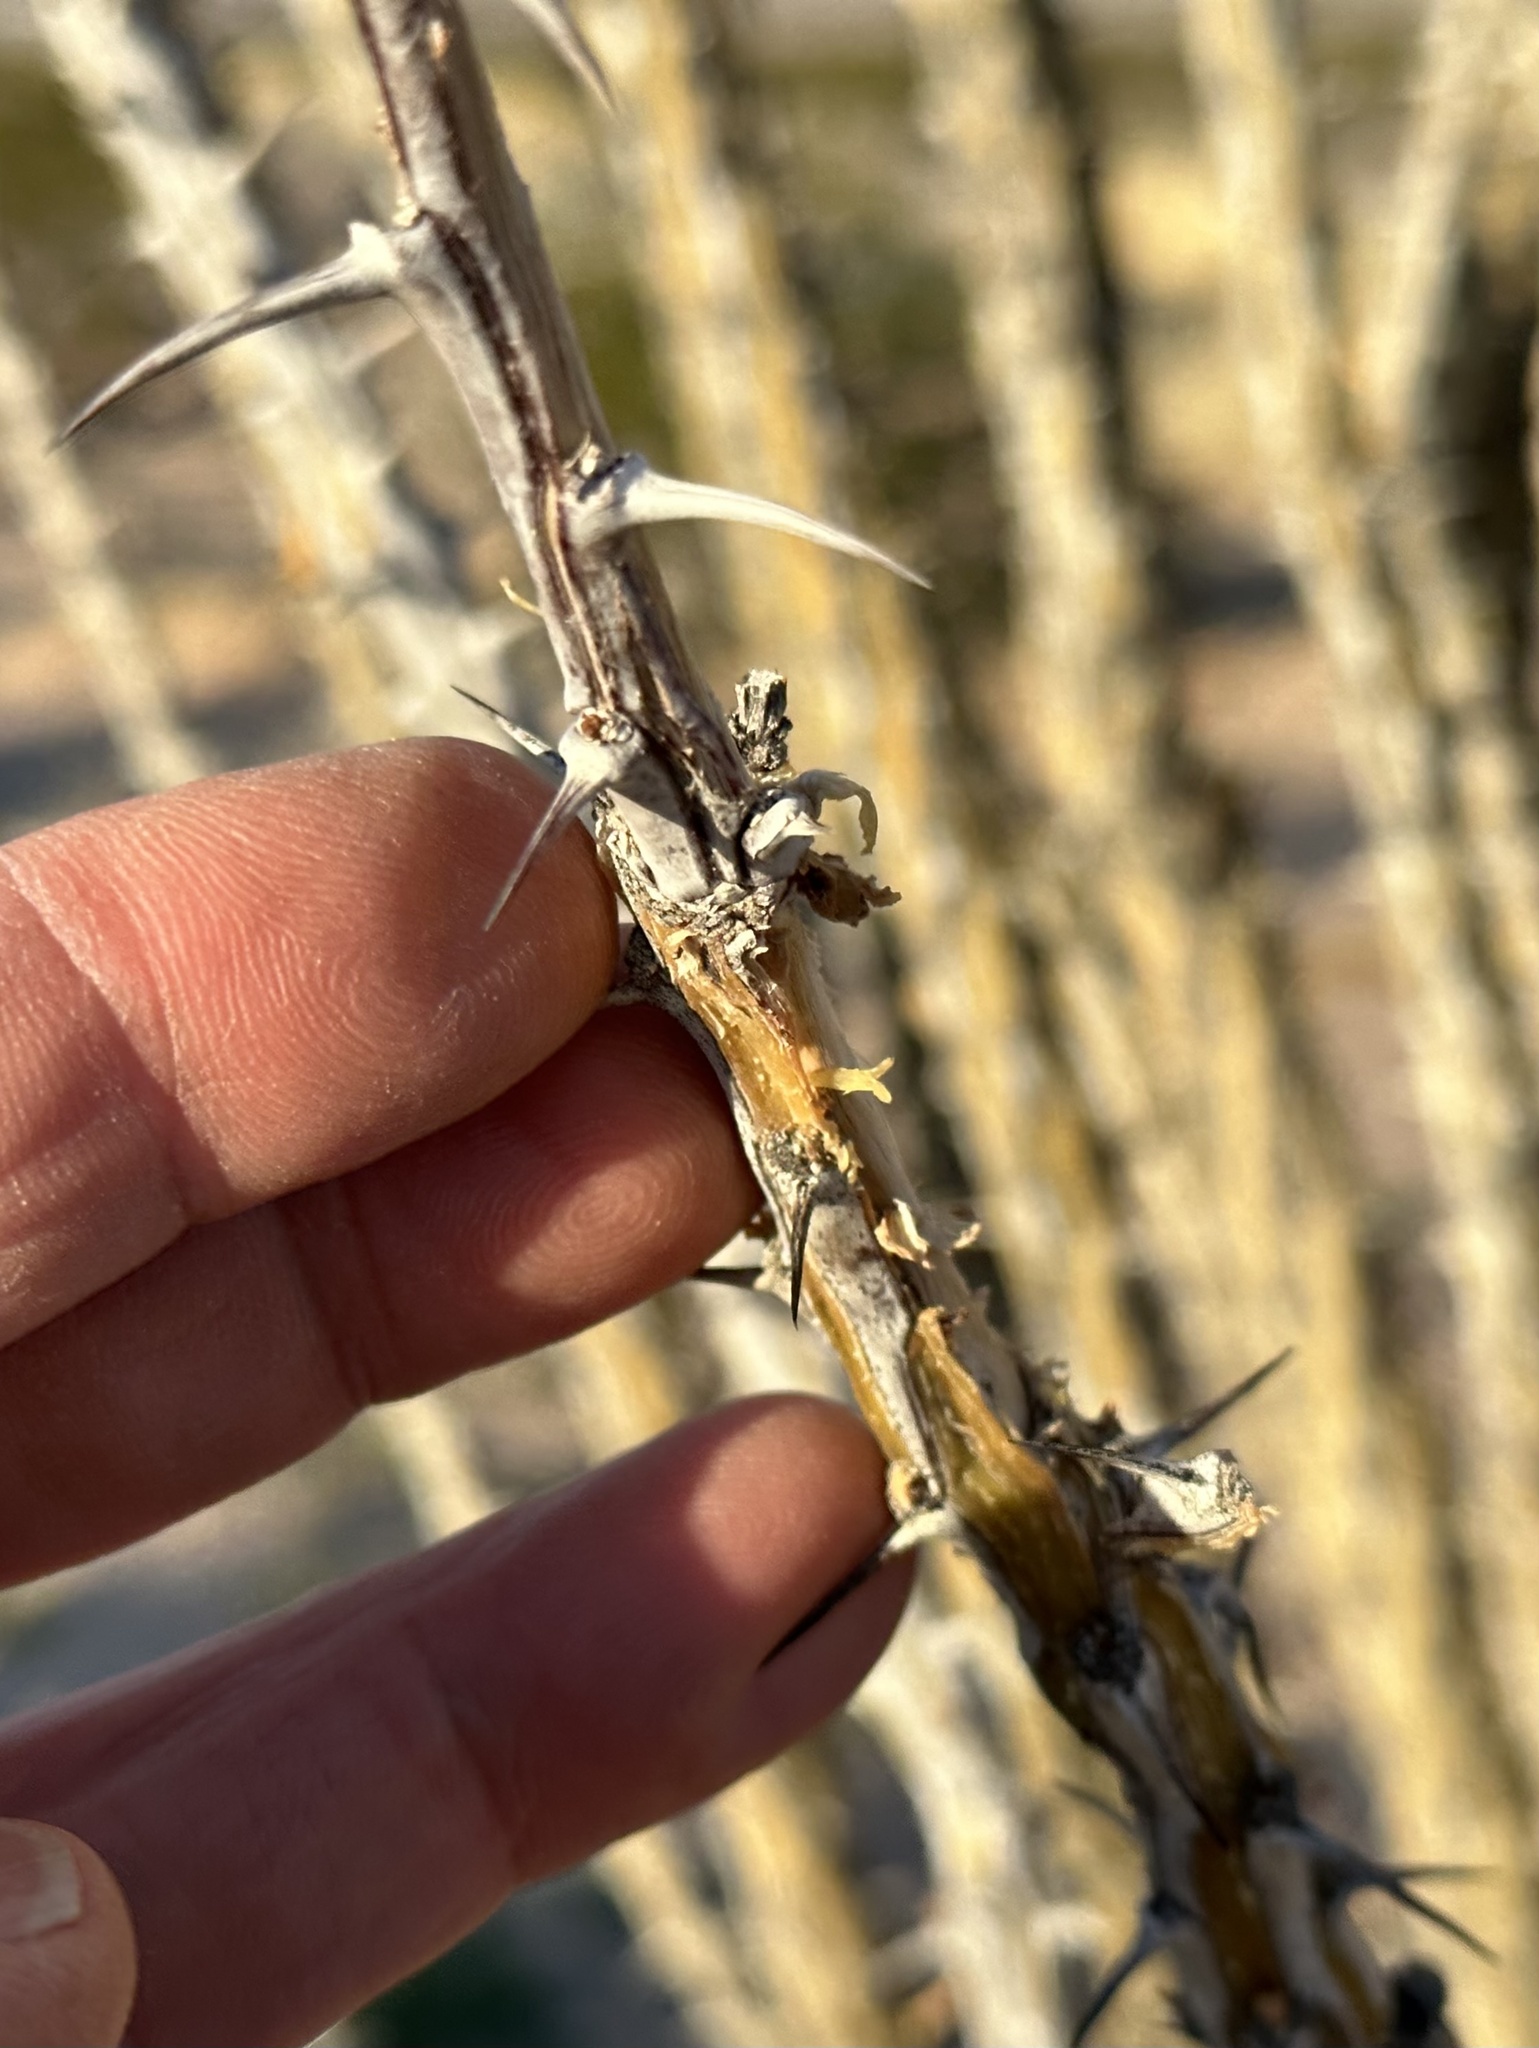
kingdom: Plantae
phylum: Tracheophyta
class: Magnoliopsida
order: Ericales
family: Fouquieriaceae
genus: Fouquieria
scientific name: Fouquieria splendens
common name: Vine-cactus
